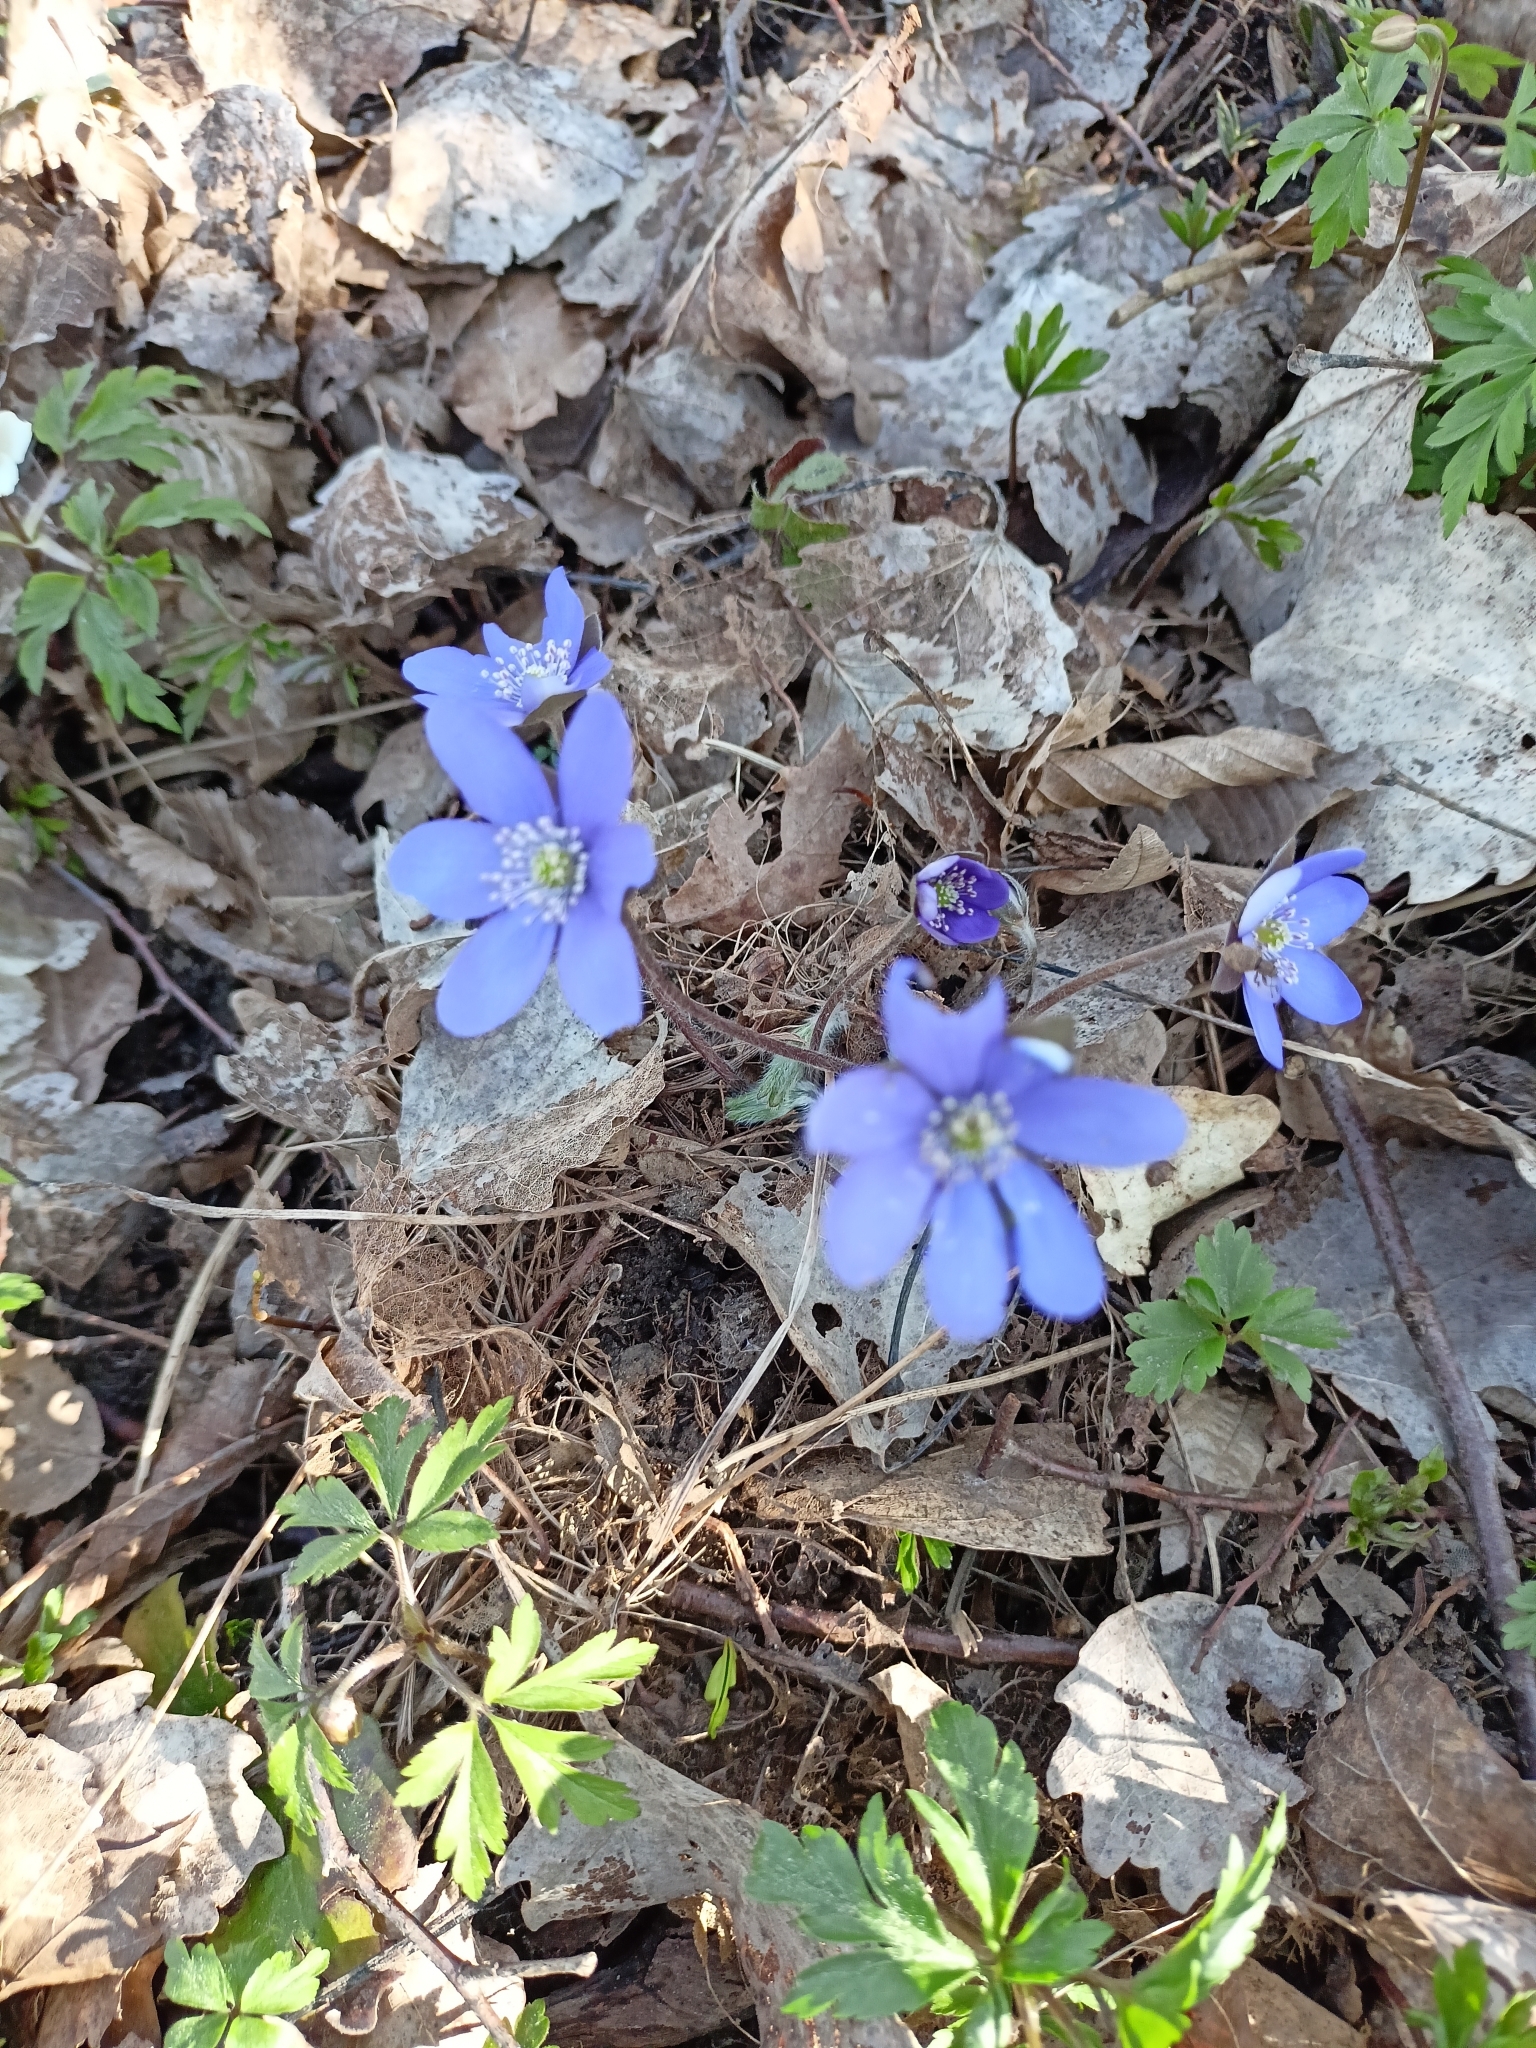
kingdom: Plantae
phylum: Tracheophyta
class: Magnoliopsida
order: Ranunculales
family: Ranunculaceae
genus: Hepatica
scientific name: Hepatica nobilis
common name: Liverleaf
